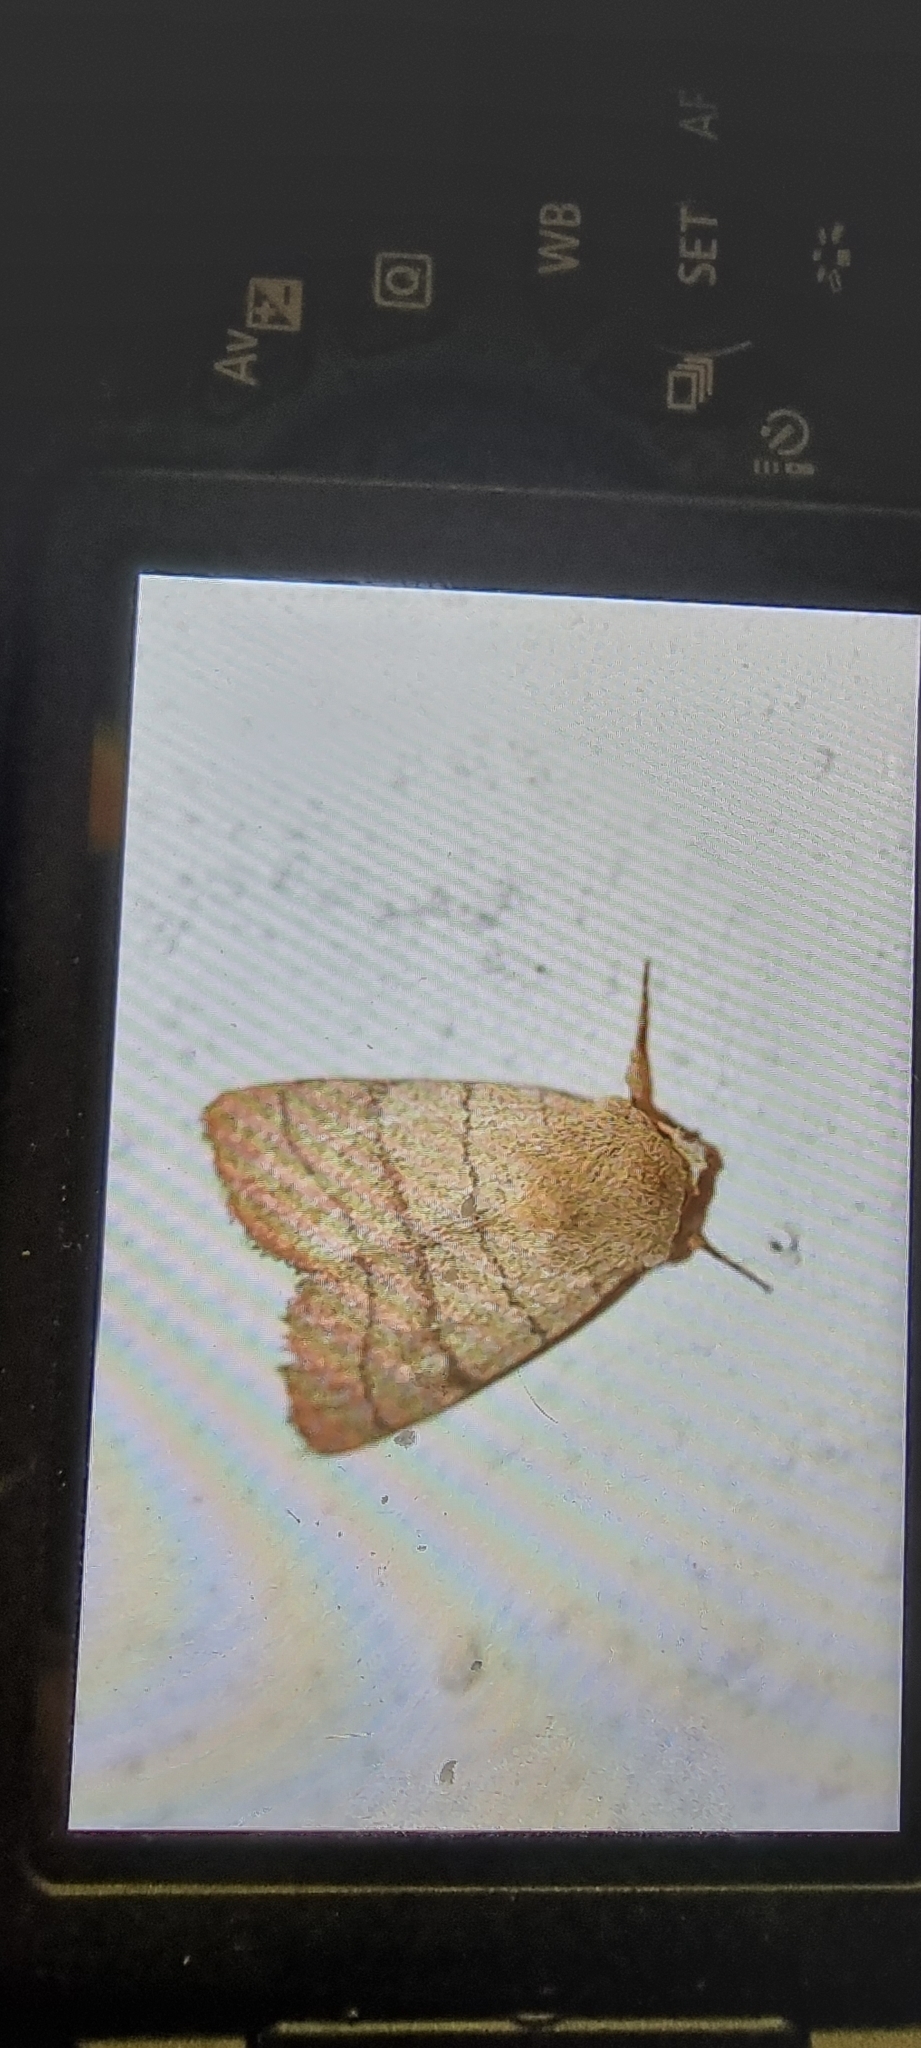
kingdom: Animalia
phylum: Arthropoda
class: Insecta
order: Lepidoptera
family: Noctuidae
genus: Charanyca
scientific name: Charanyca trigrammica
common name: Treble lines
